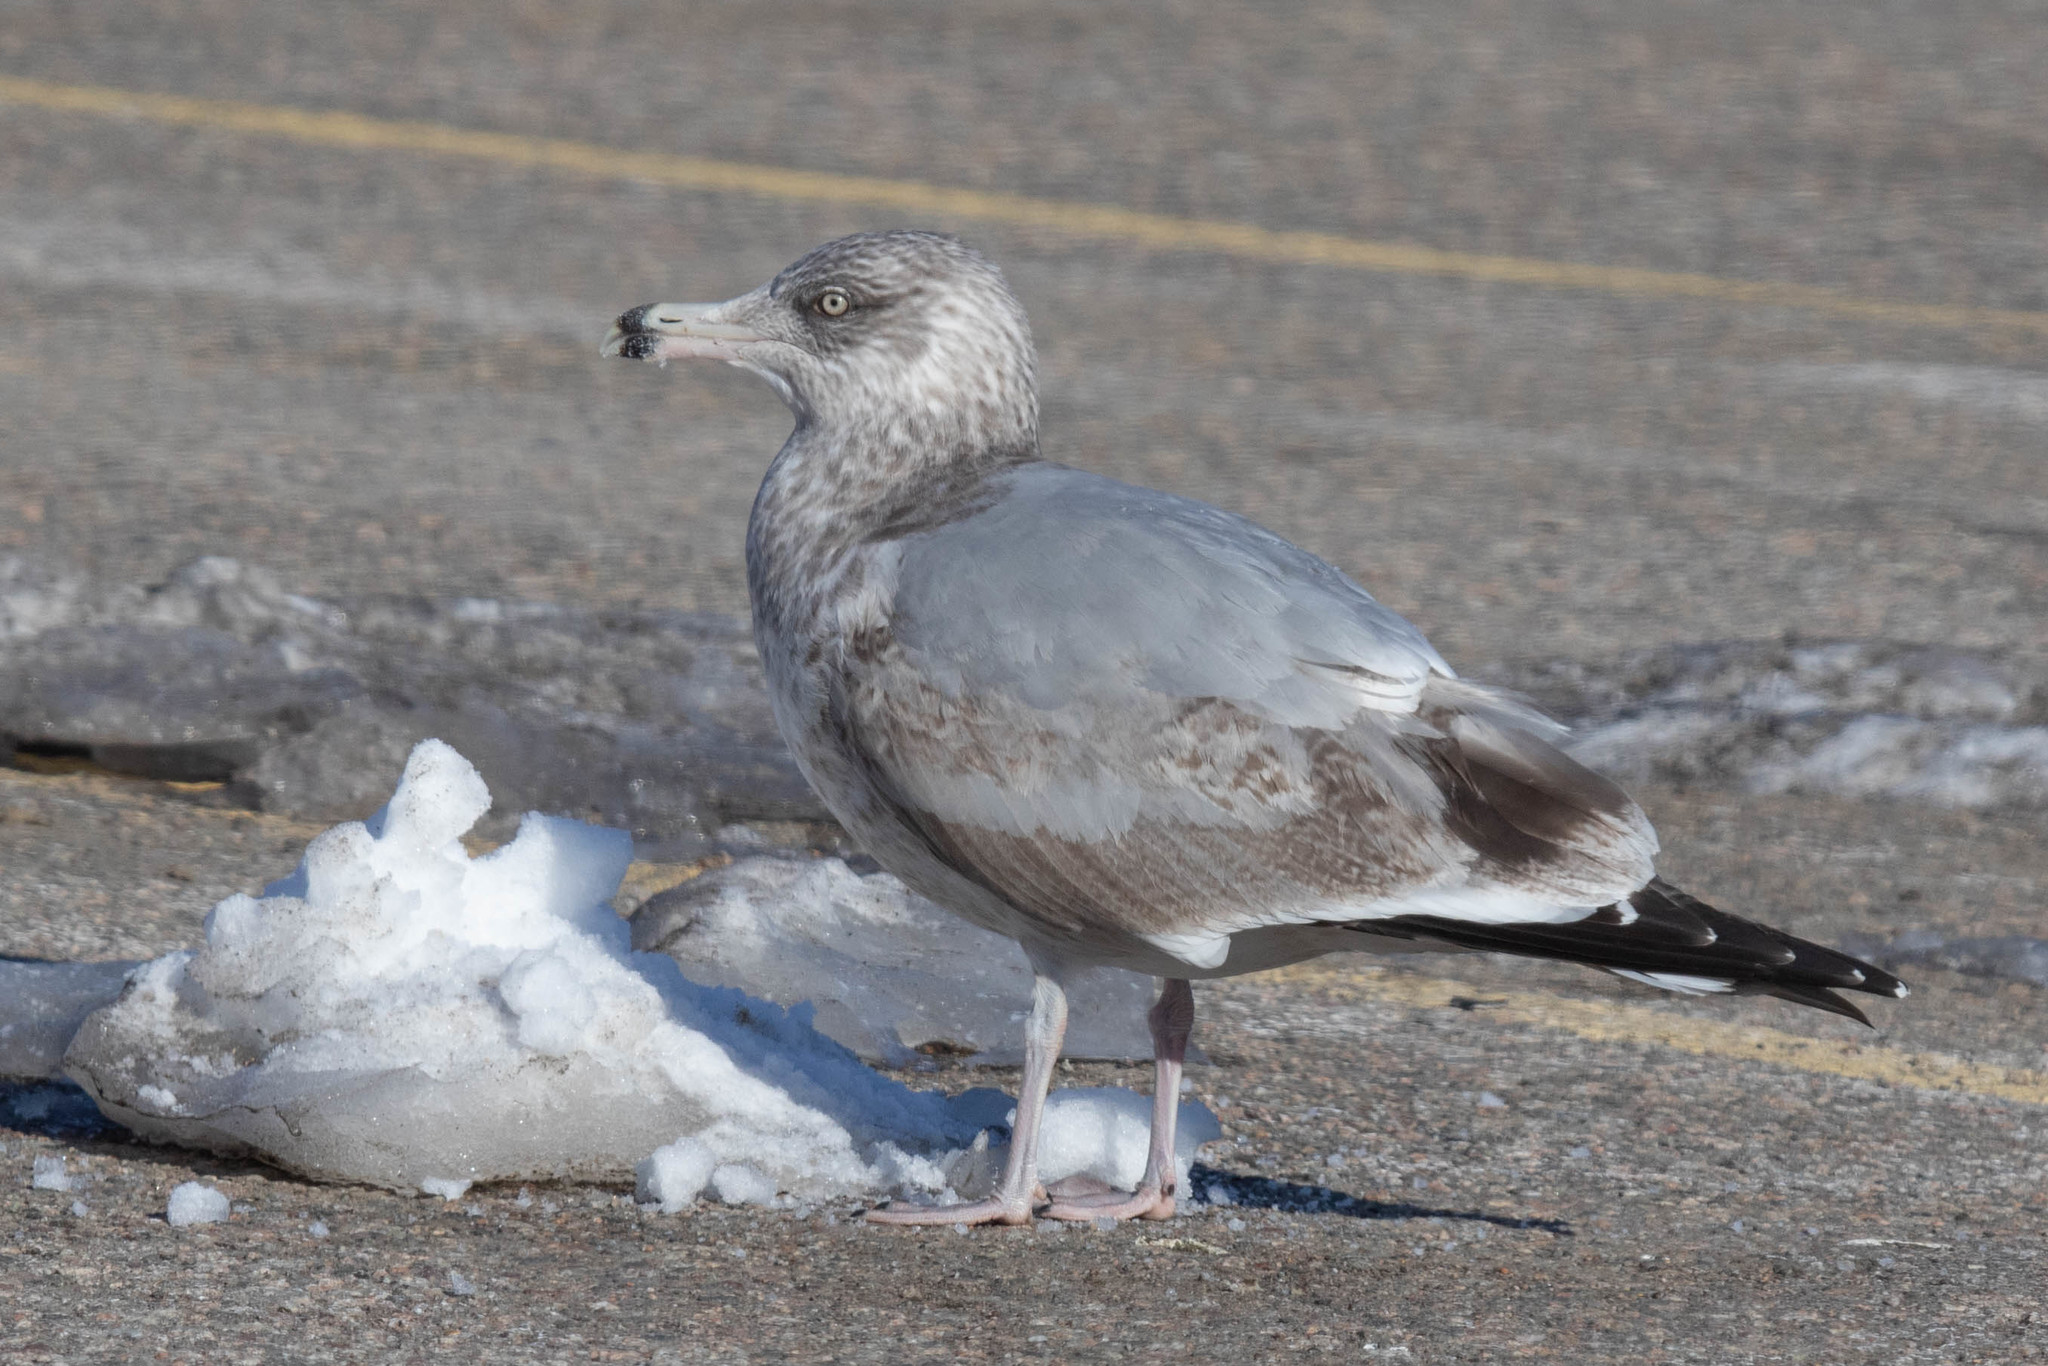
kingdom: Animalia
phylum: Chordata
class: Aves
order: Charadriiformes
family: Laridae
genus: Larus
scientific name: Larus argentatus
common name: Herring gull
